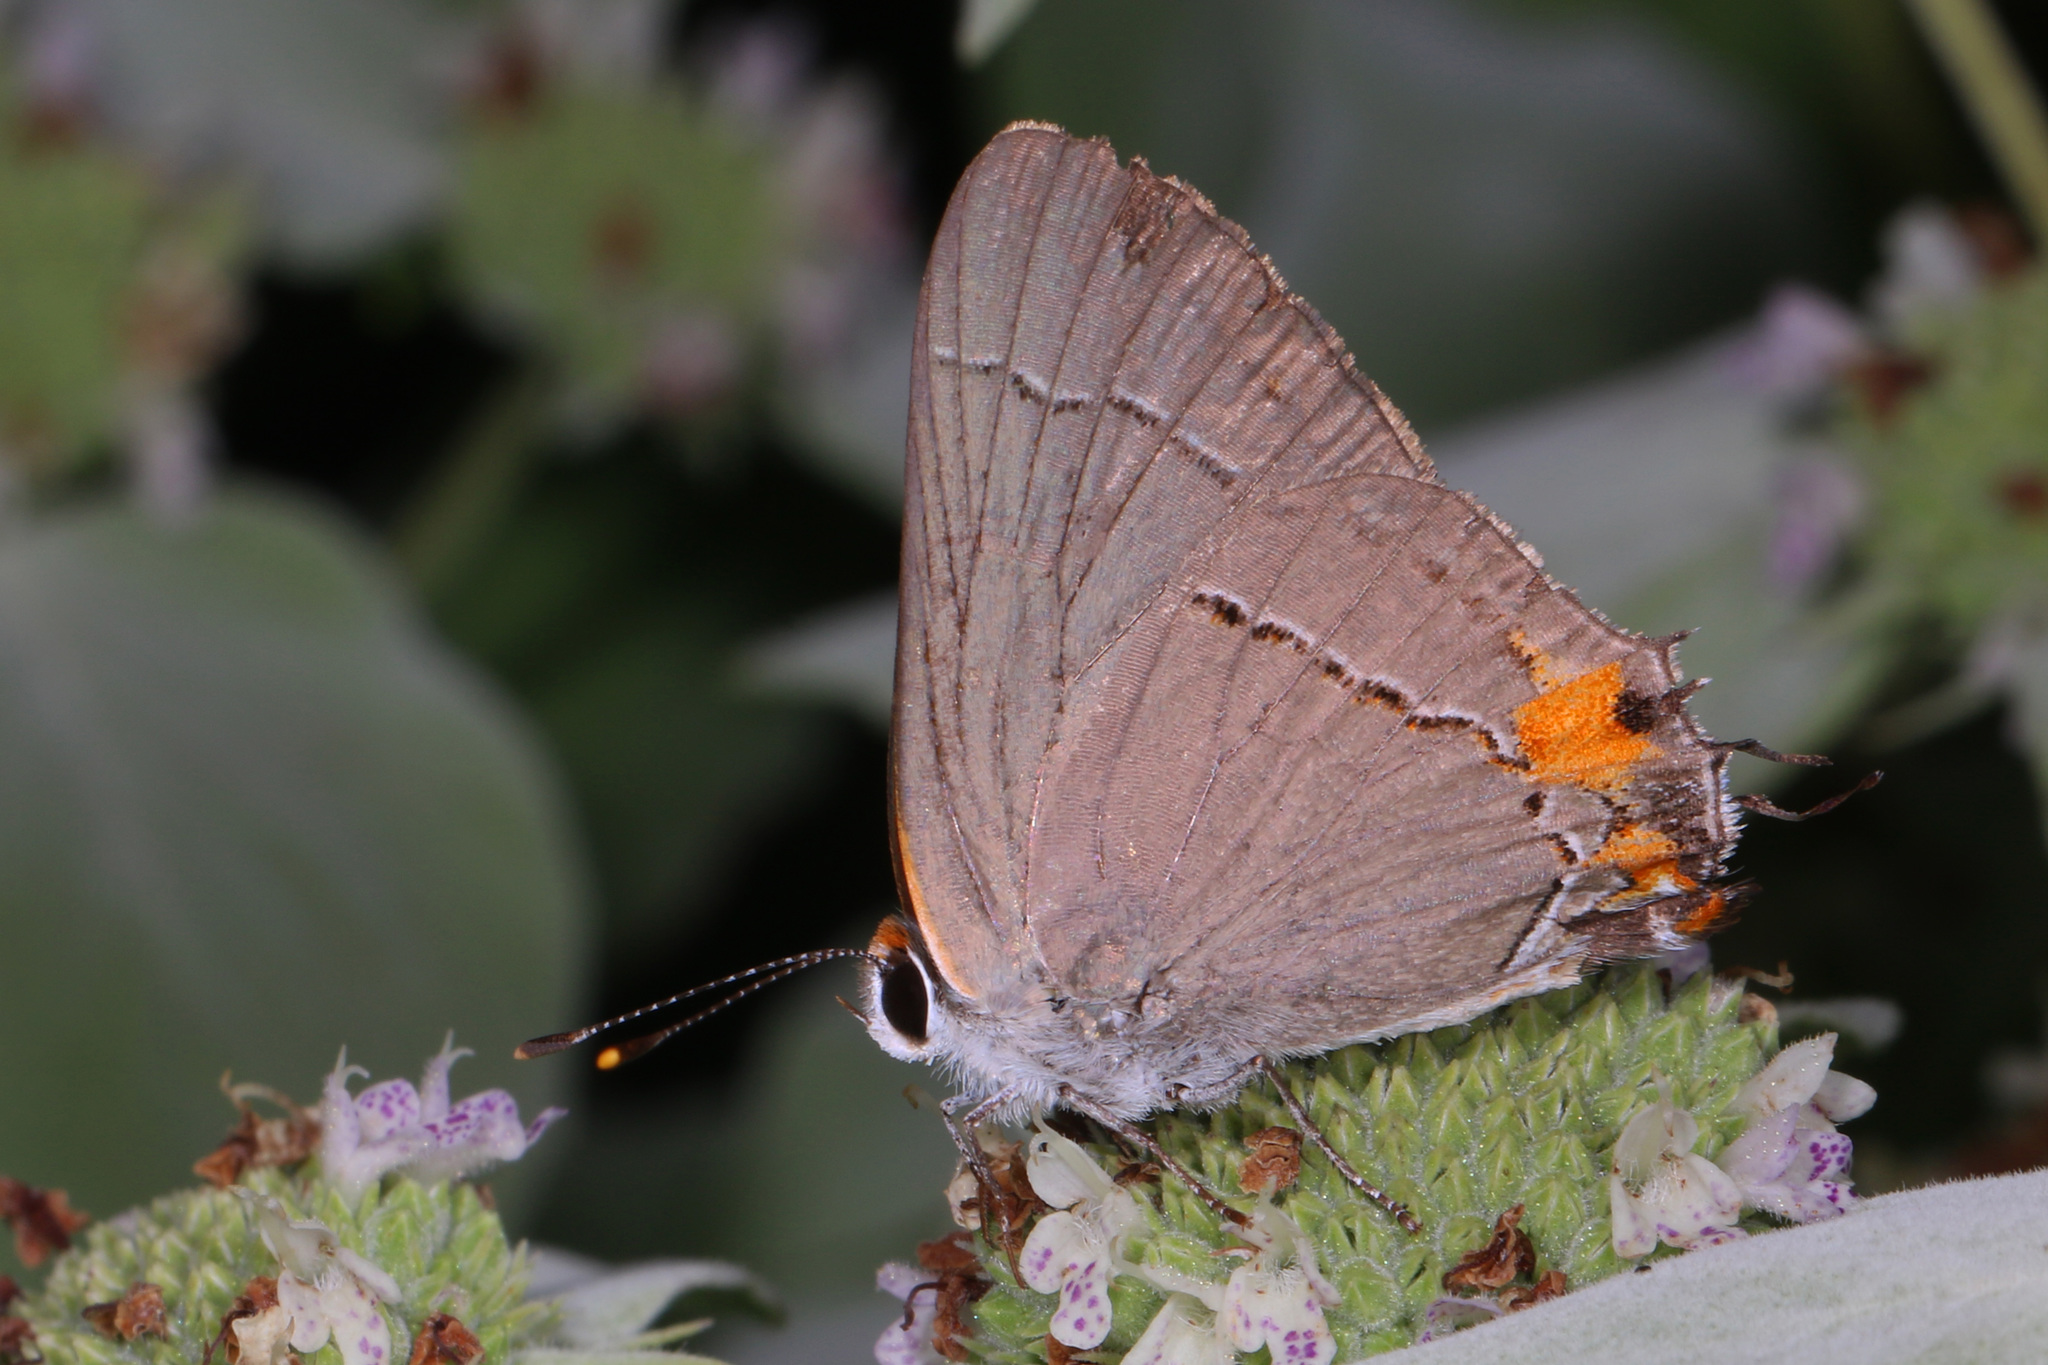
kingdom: Animalia
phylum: Arthropoda
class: Insecta
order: Lepidoptera
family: Lycaenidae
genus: Strymon
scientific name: Strymon melinus
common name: Gray hairstreak
